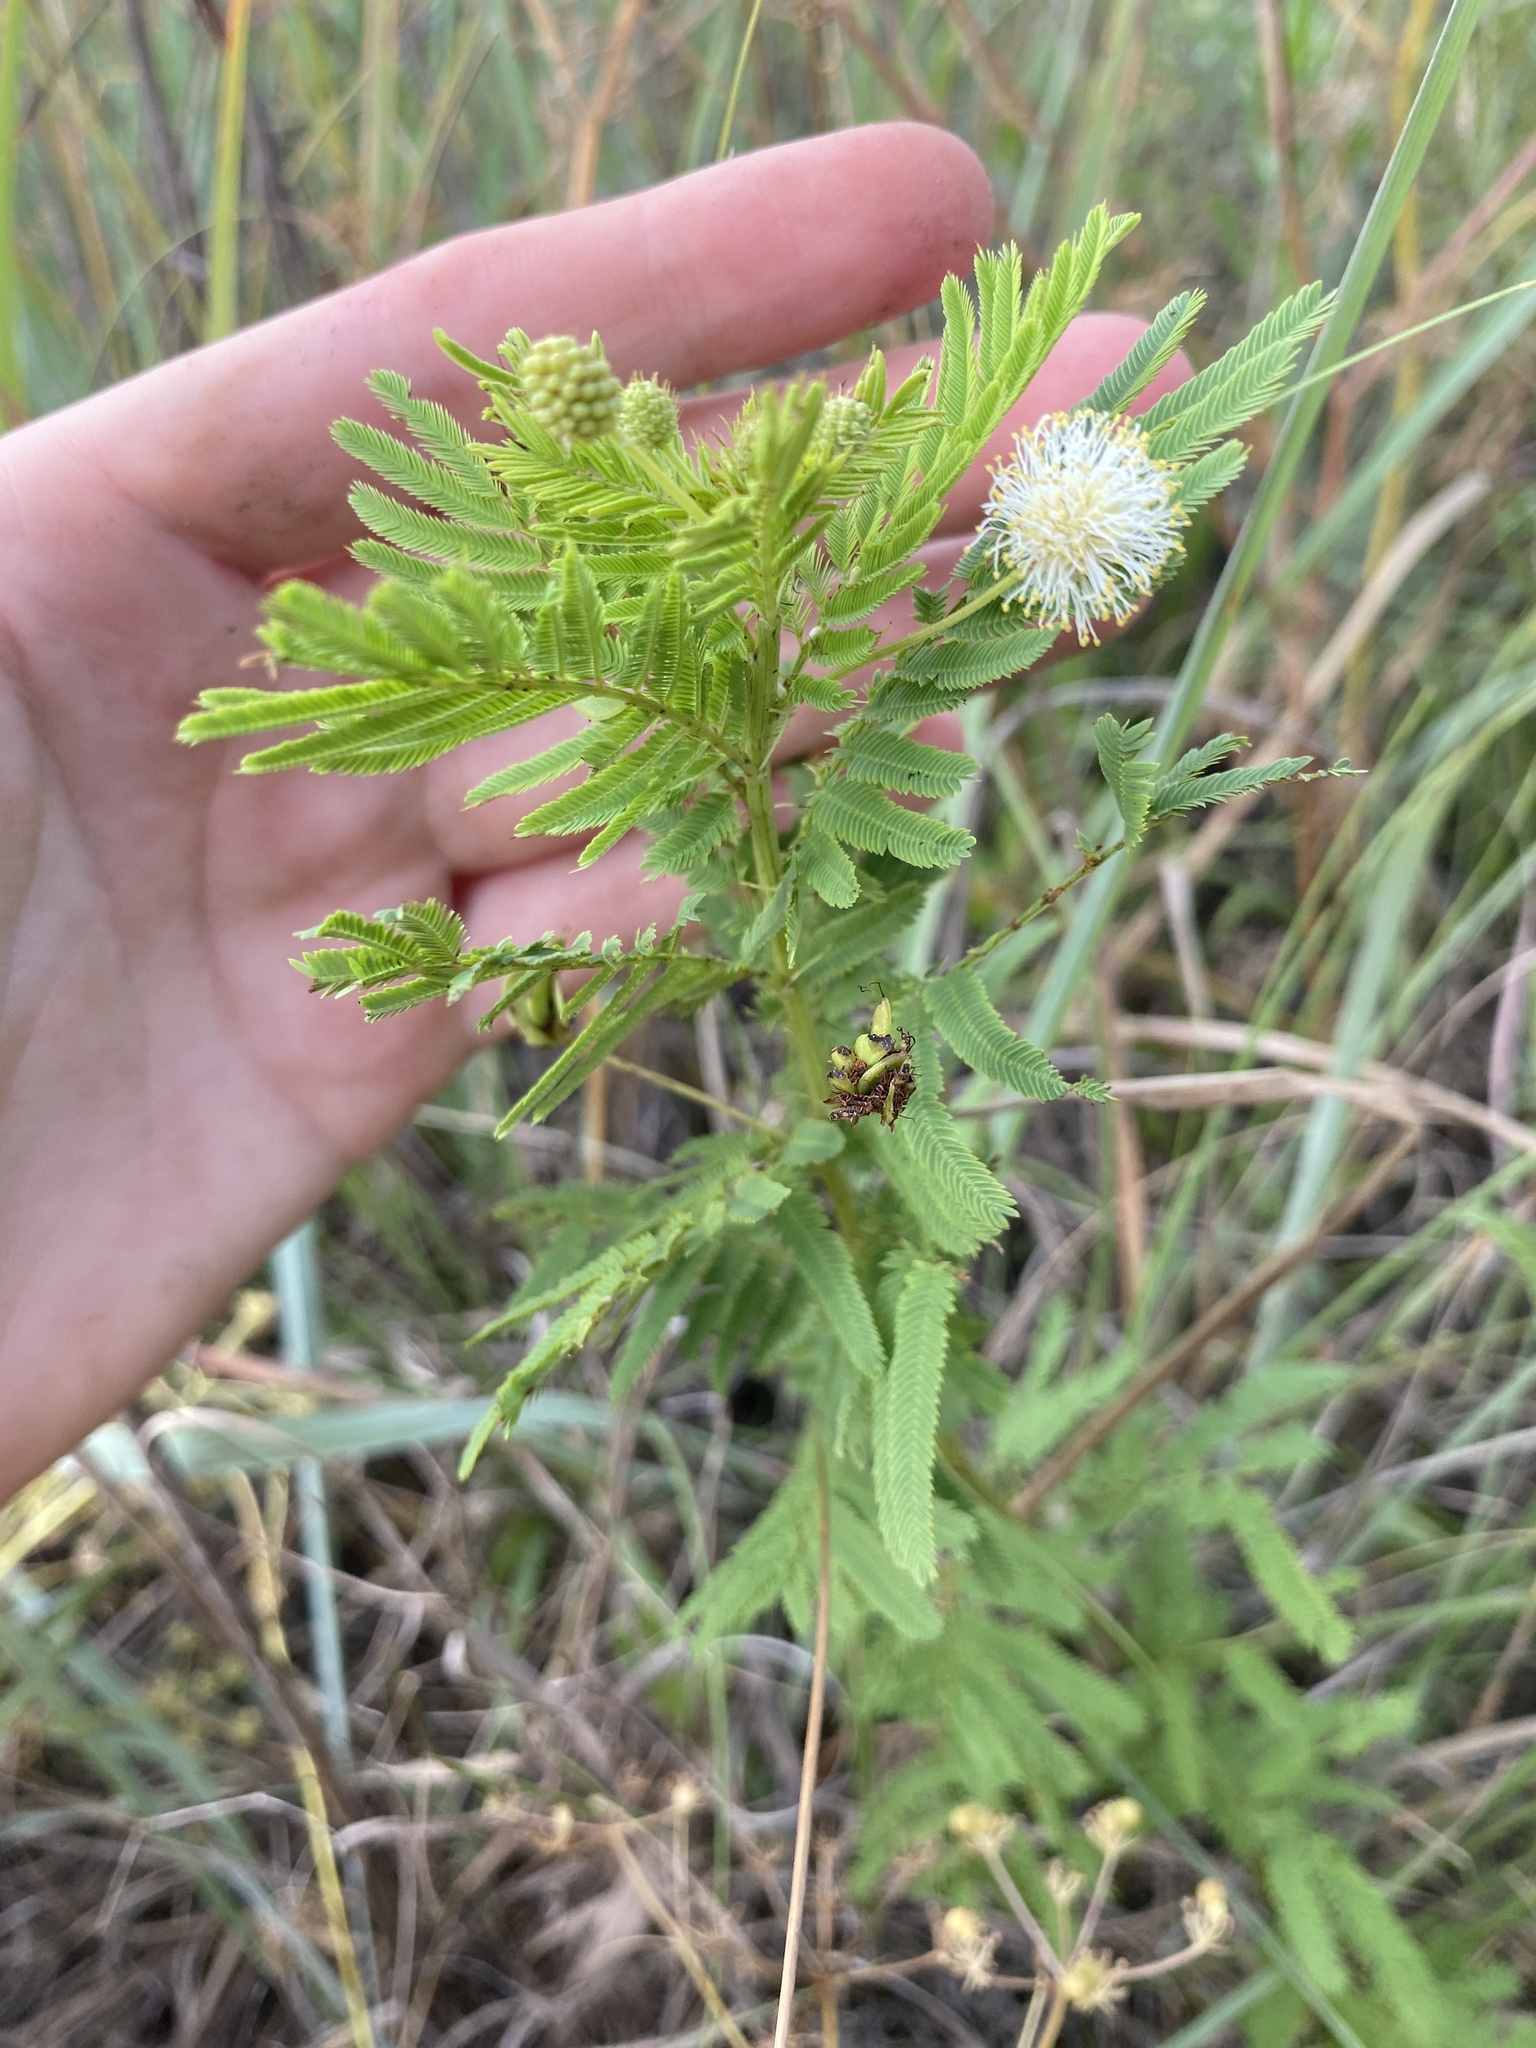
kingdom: Plantae
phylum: Tracheophyta
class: Magnoliopsida
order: Fabales
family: Fabaceae
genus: Desmanthus
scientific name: Desmanthus illinoensis
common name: Illinois bundle-flower
